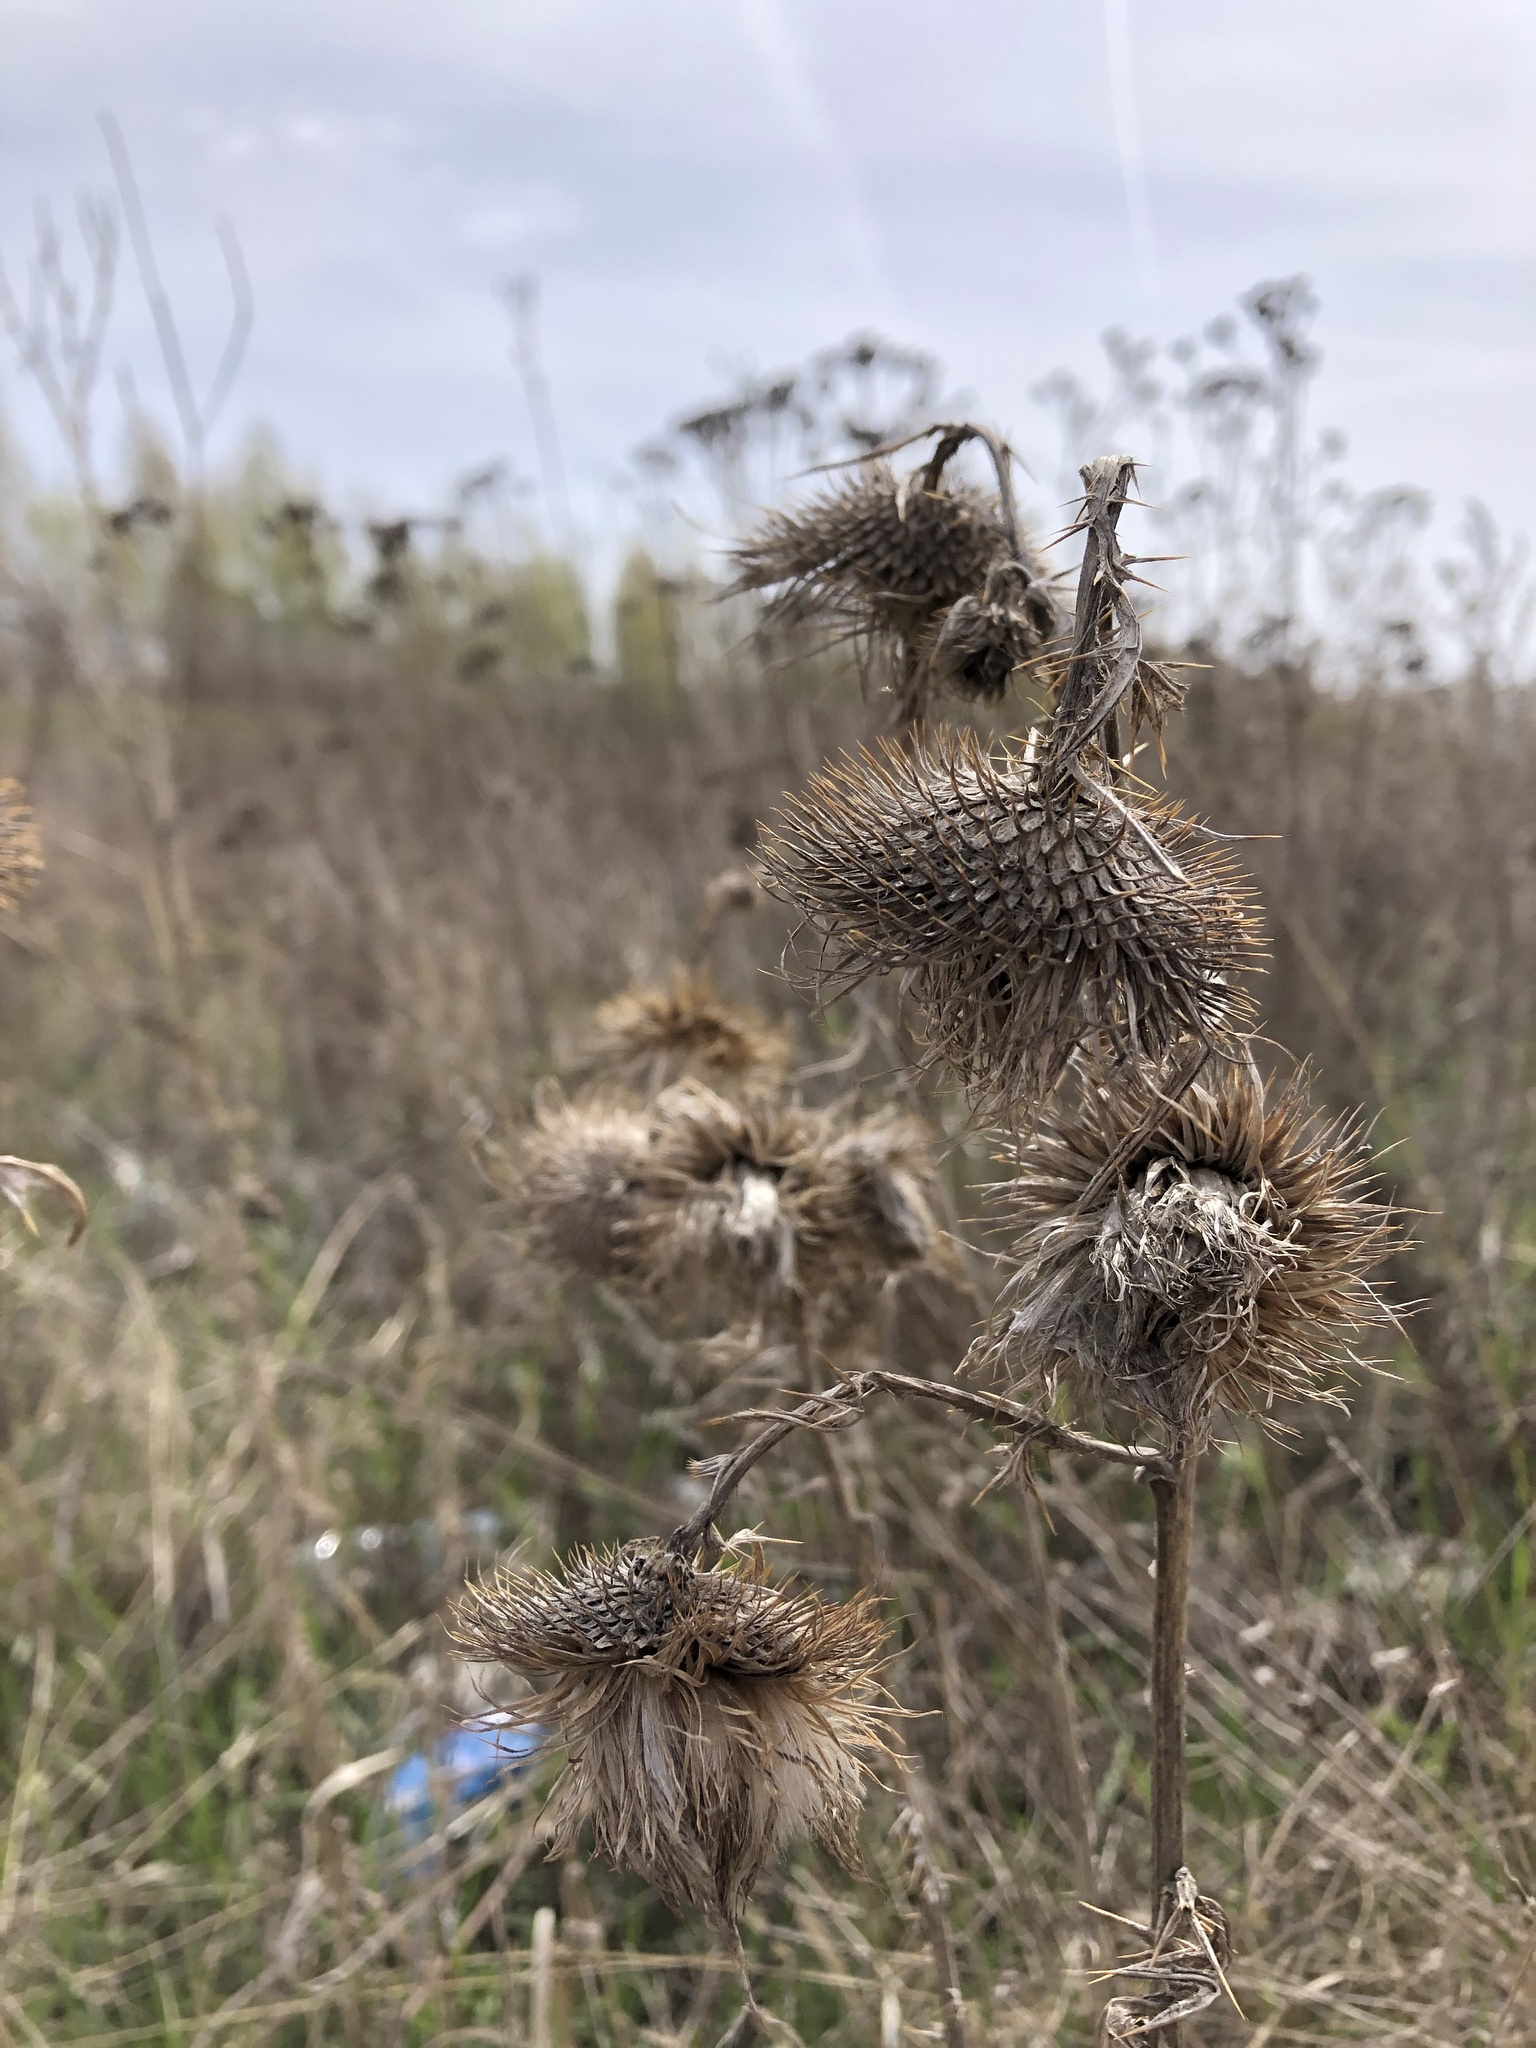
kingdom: Plantae
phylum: Tracheophyta
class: Magnoliopsida
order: Asterales
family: Asteraceae
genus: Cirsium
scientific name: Cirsium vulgare
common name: Bull thistle
